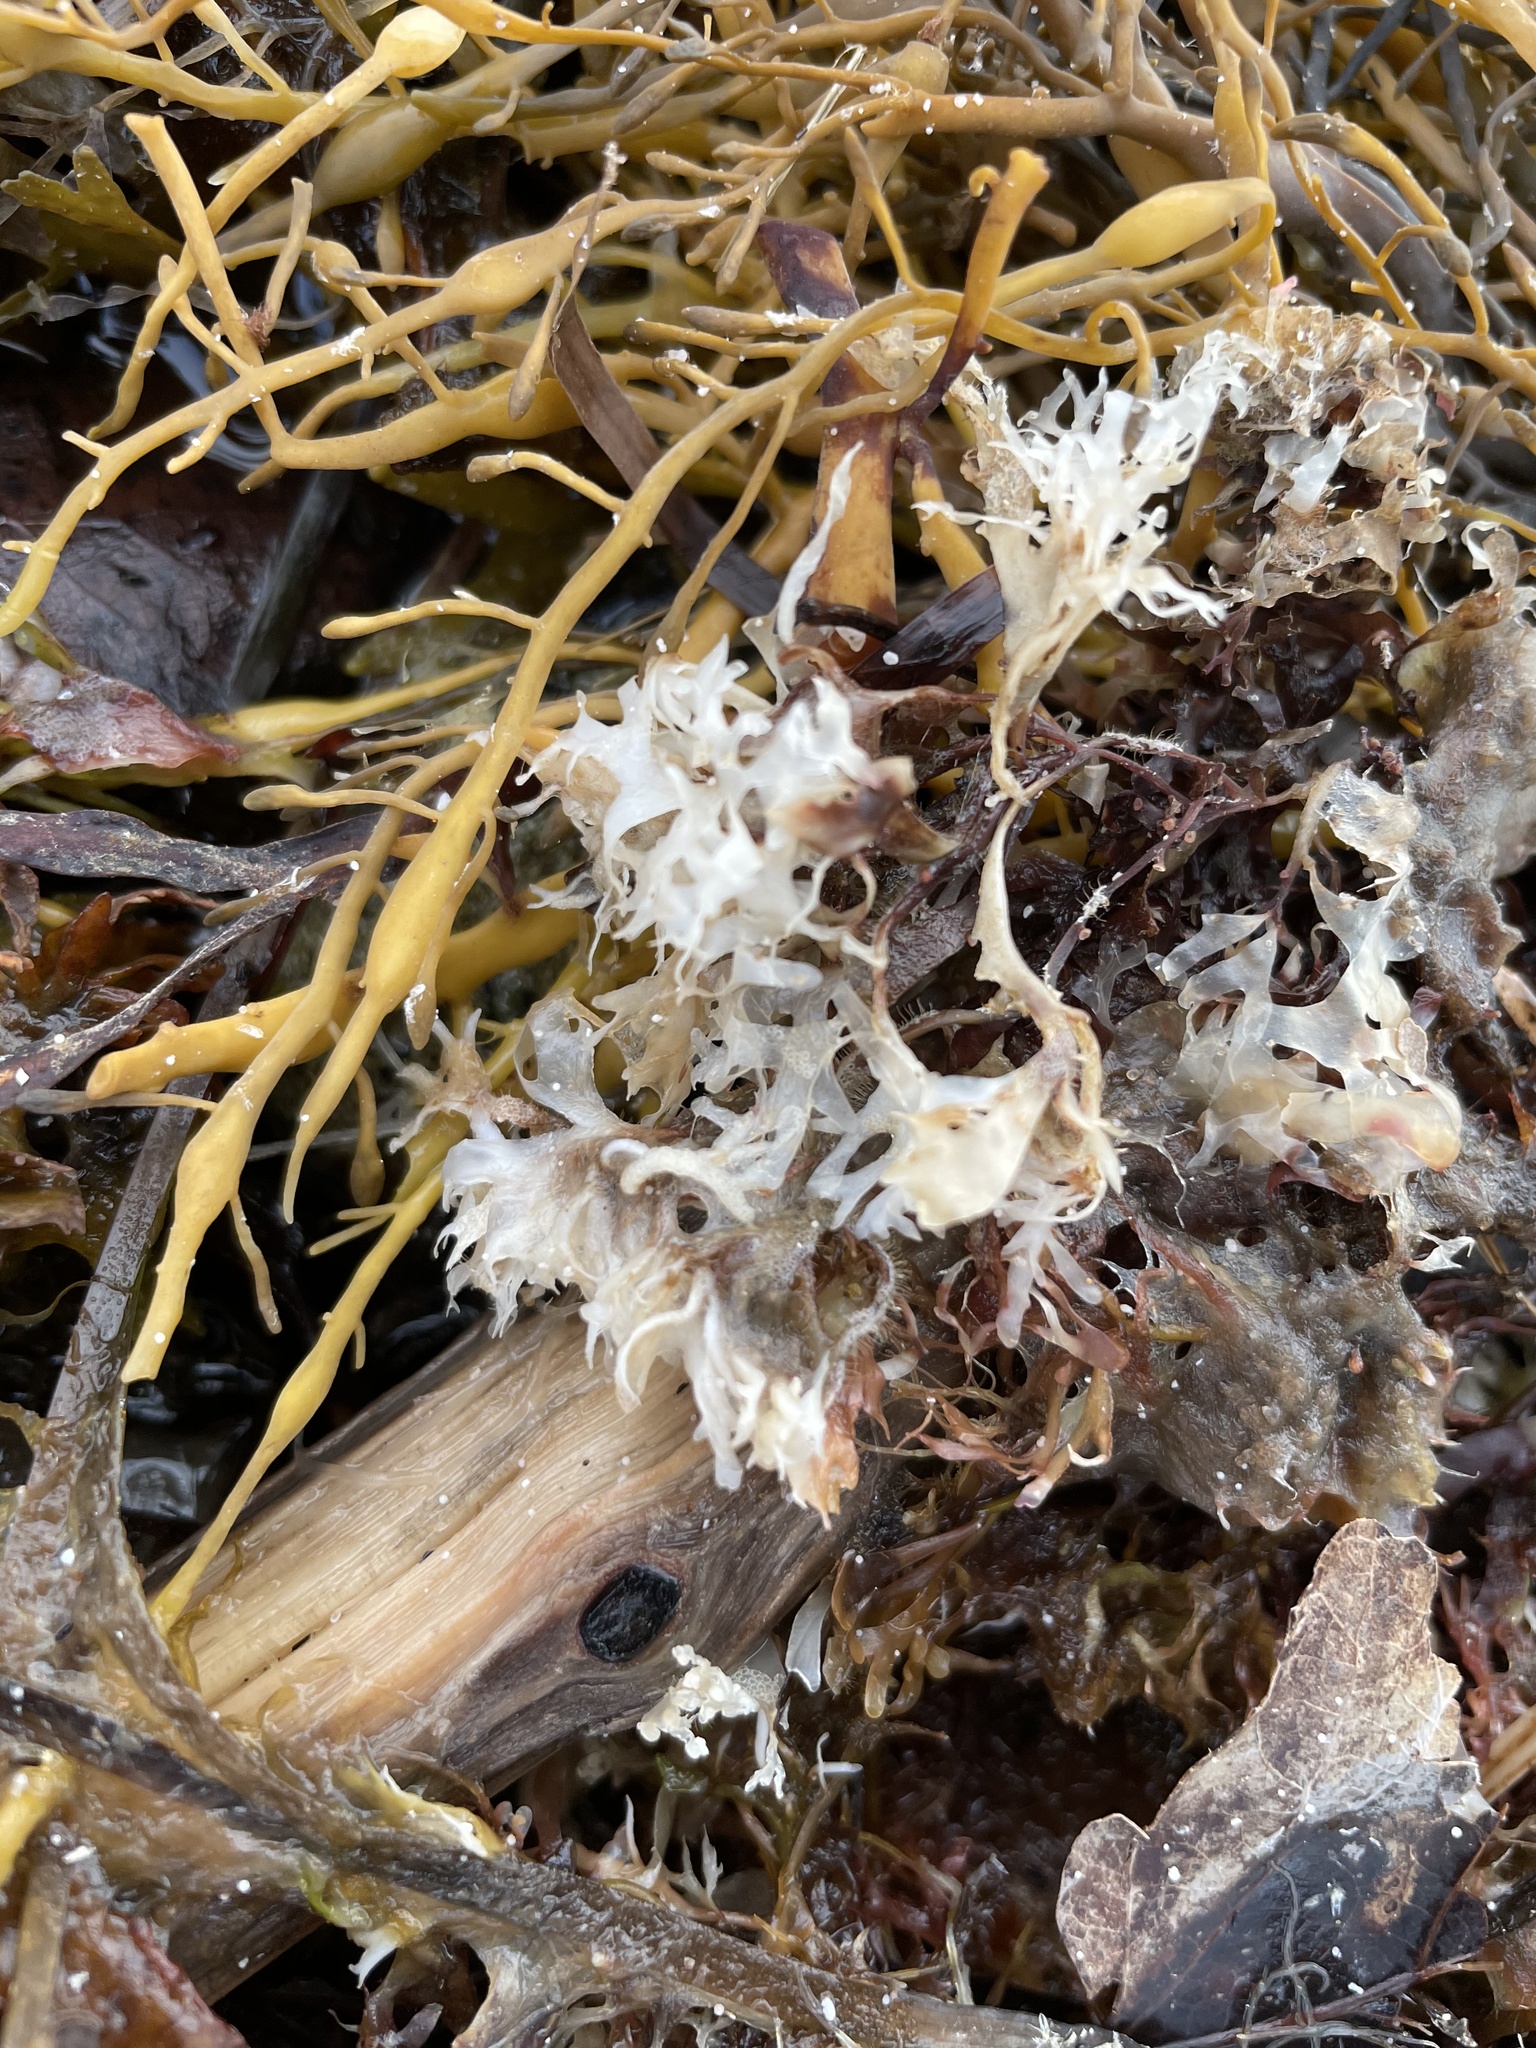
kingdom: Plantae
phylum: Rhodophyta
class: Florideophyceae
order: Gigartinales
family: Gigartinaceae
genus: Chondrus
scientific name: Chondrus crispus
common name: Carrageen
